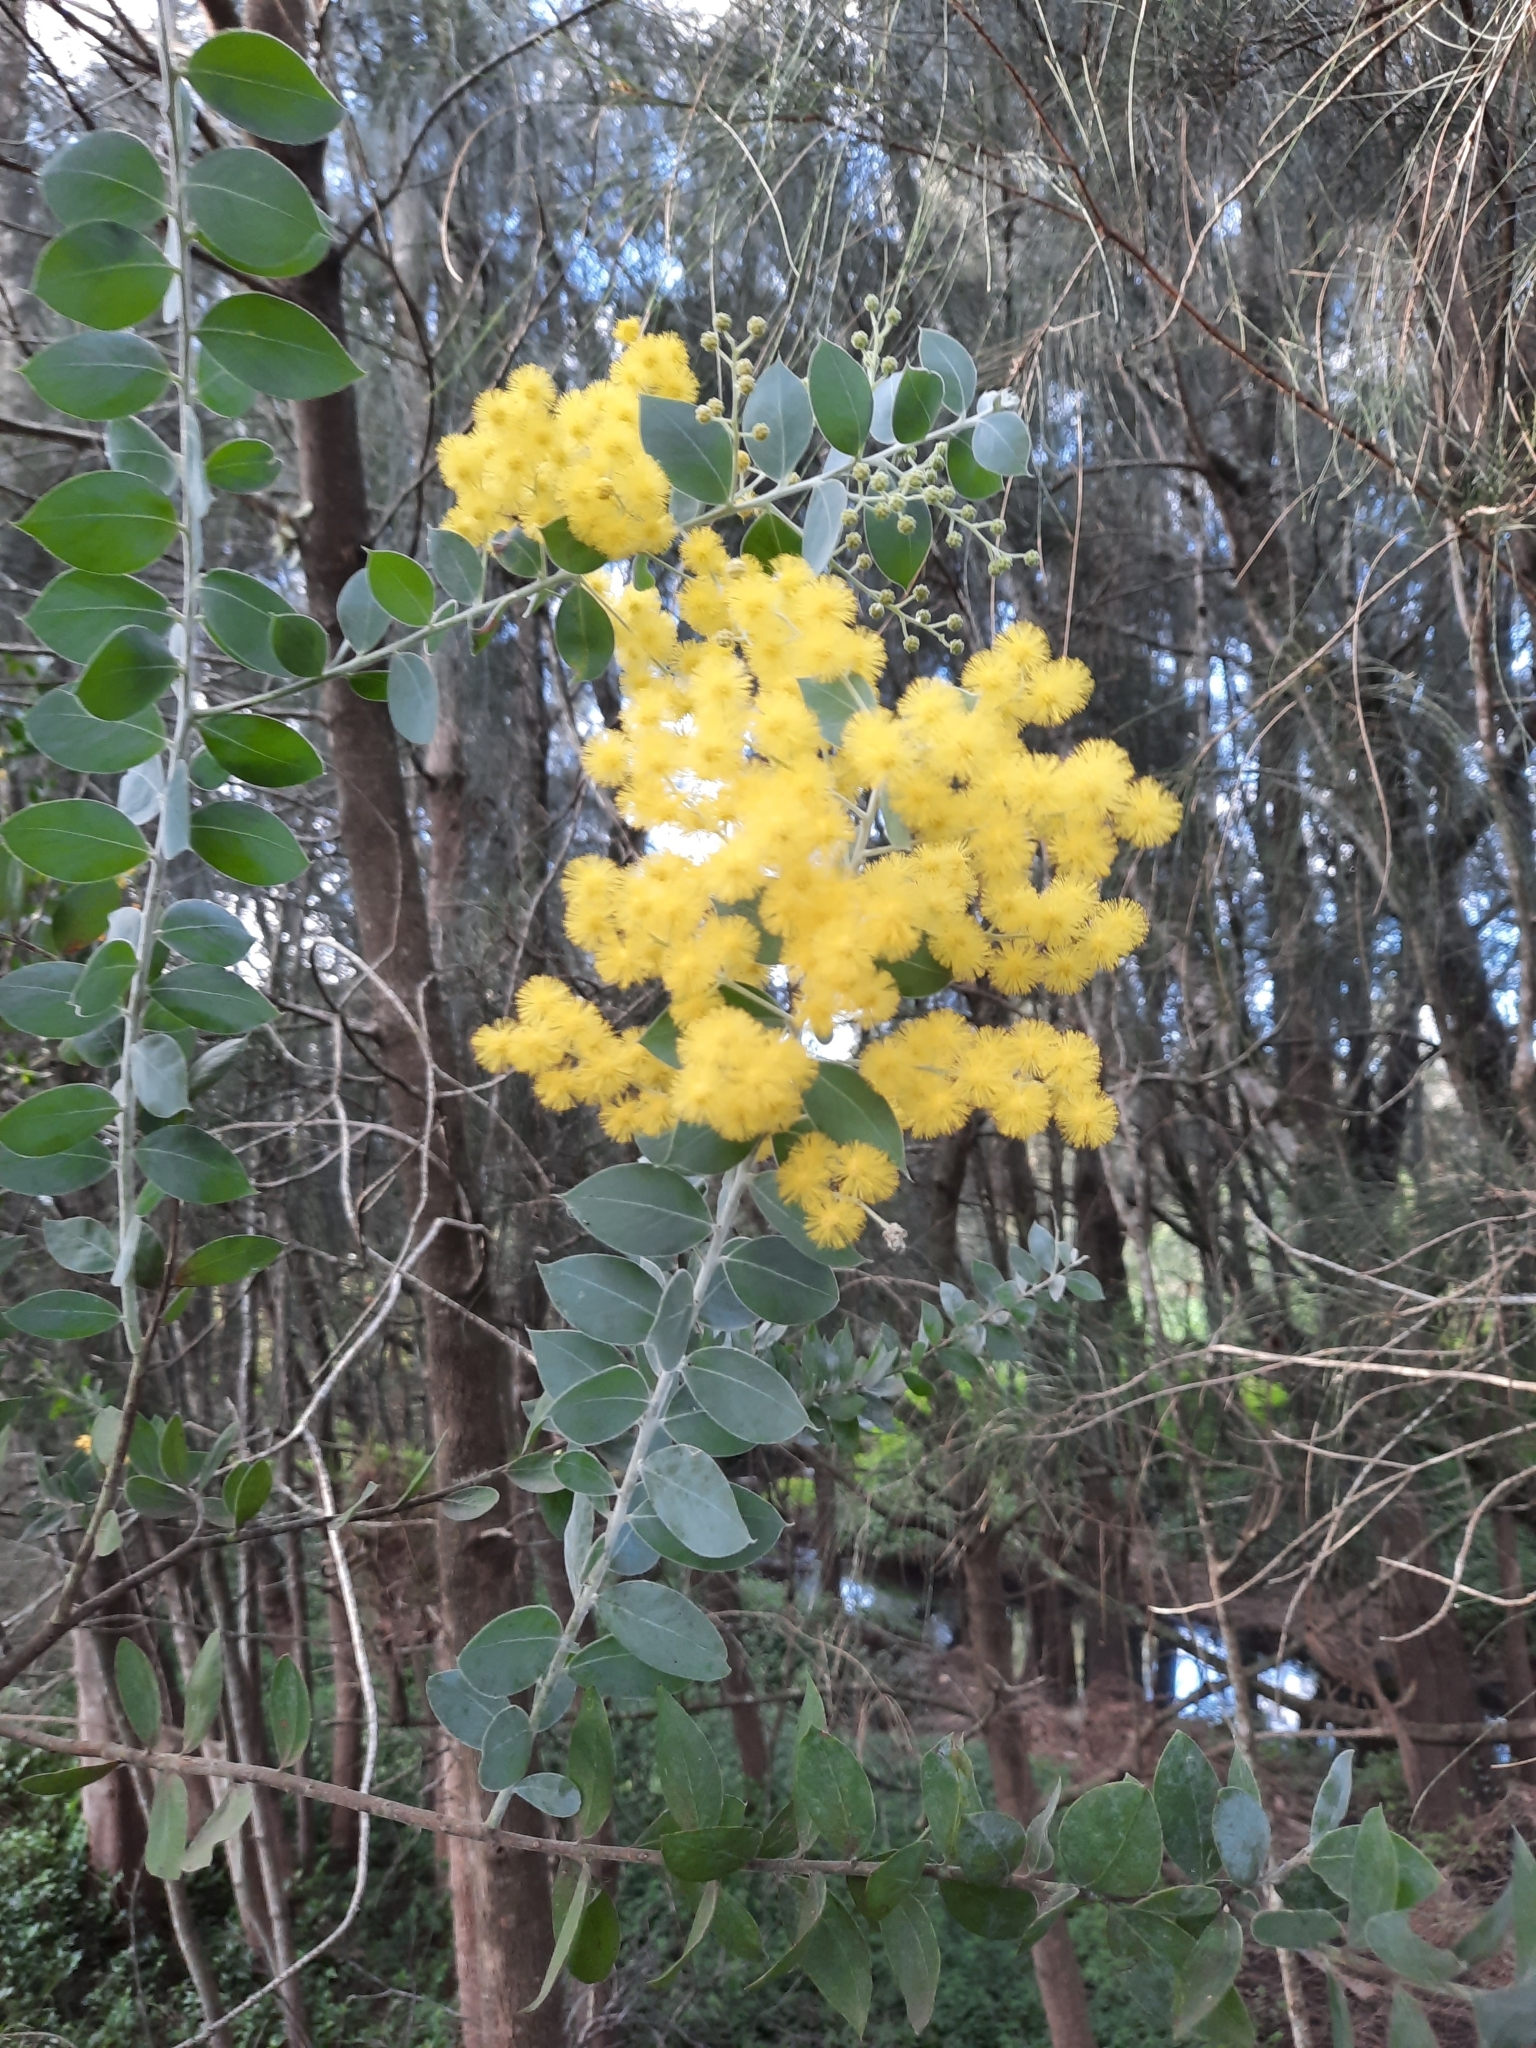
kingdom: Plantae
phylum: Tracheophyta
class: Magnoliopsida
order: Fabales
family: Fabaceae
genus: Acacia
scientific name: Acacia podalyriifolia
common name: Pearl wattle
